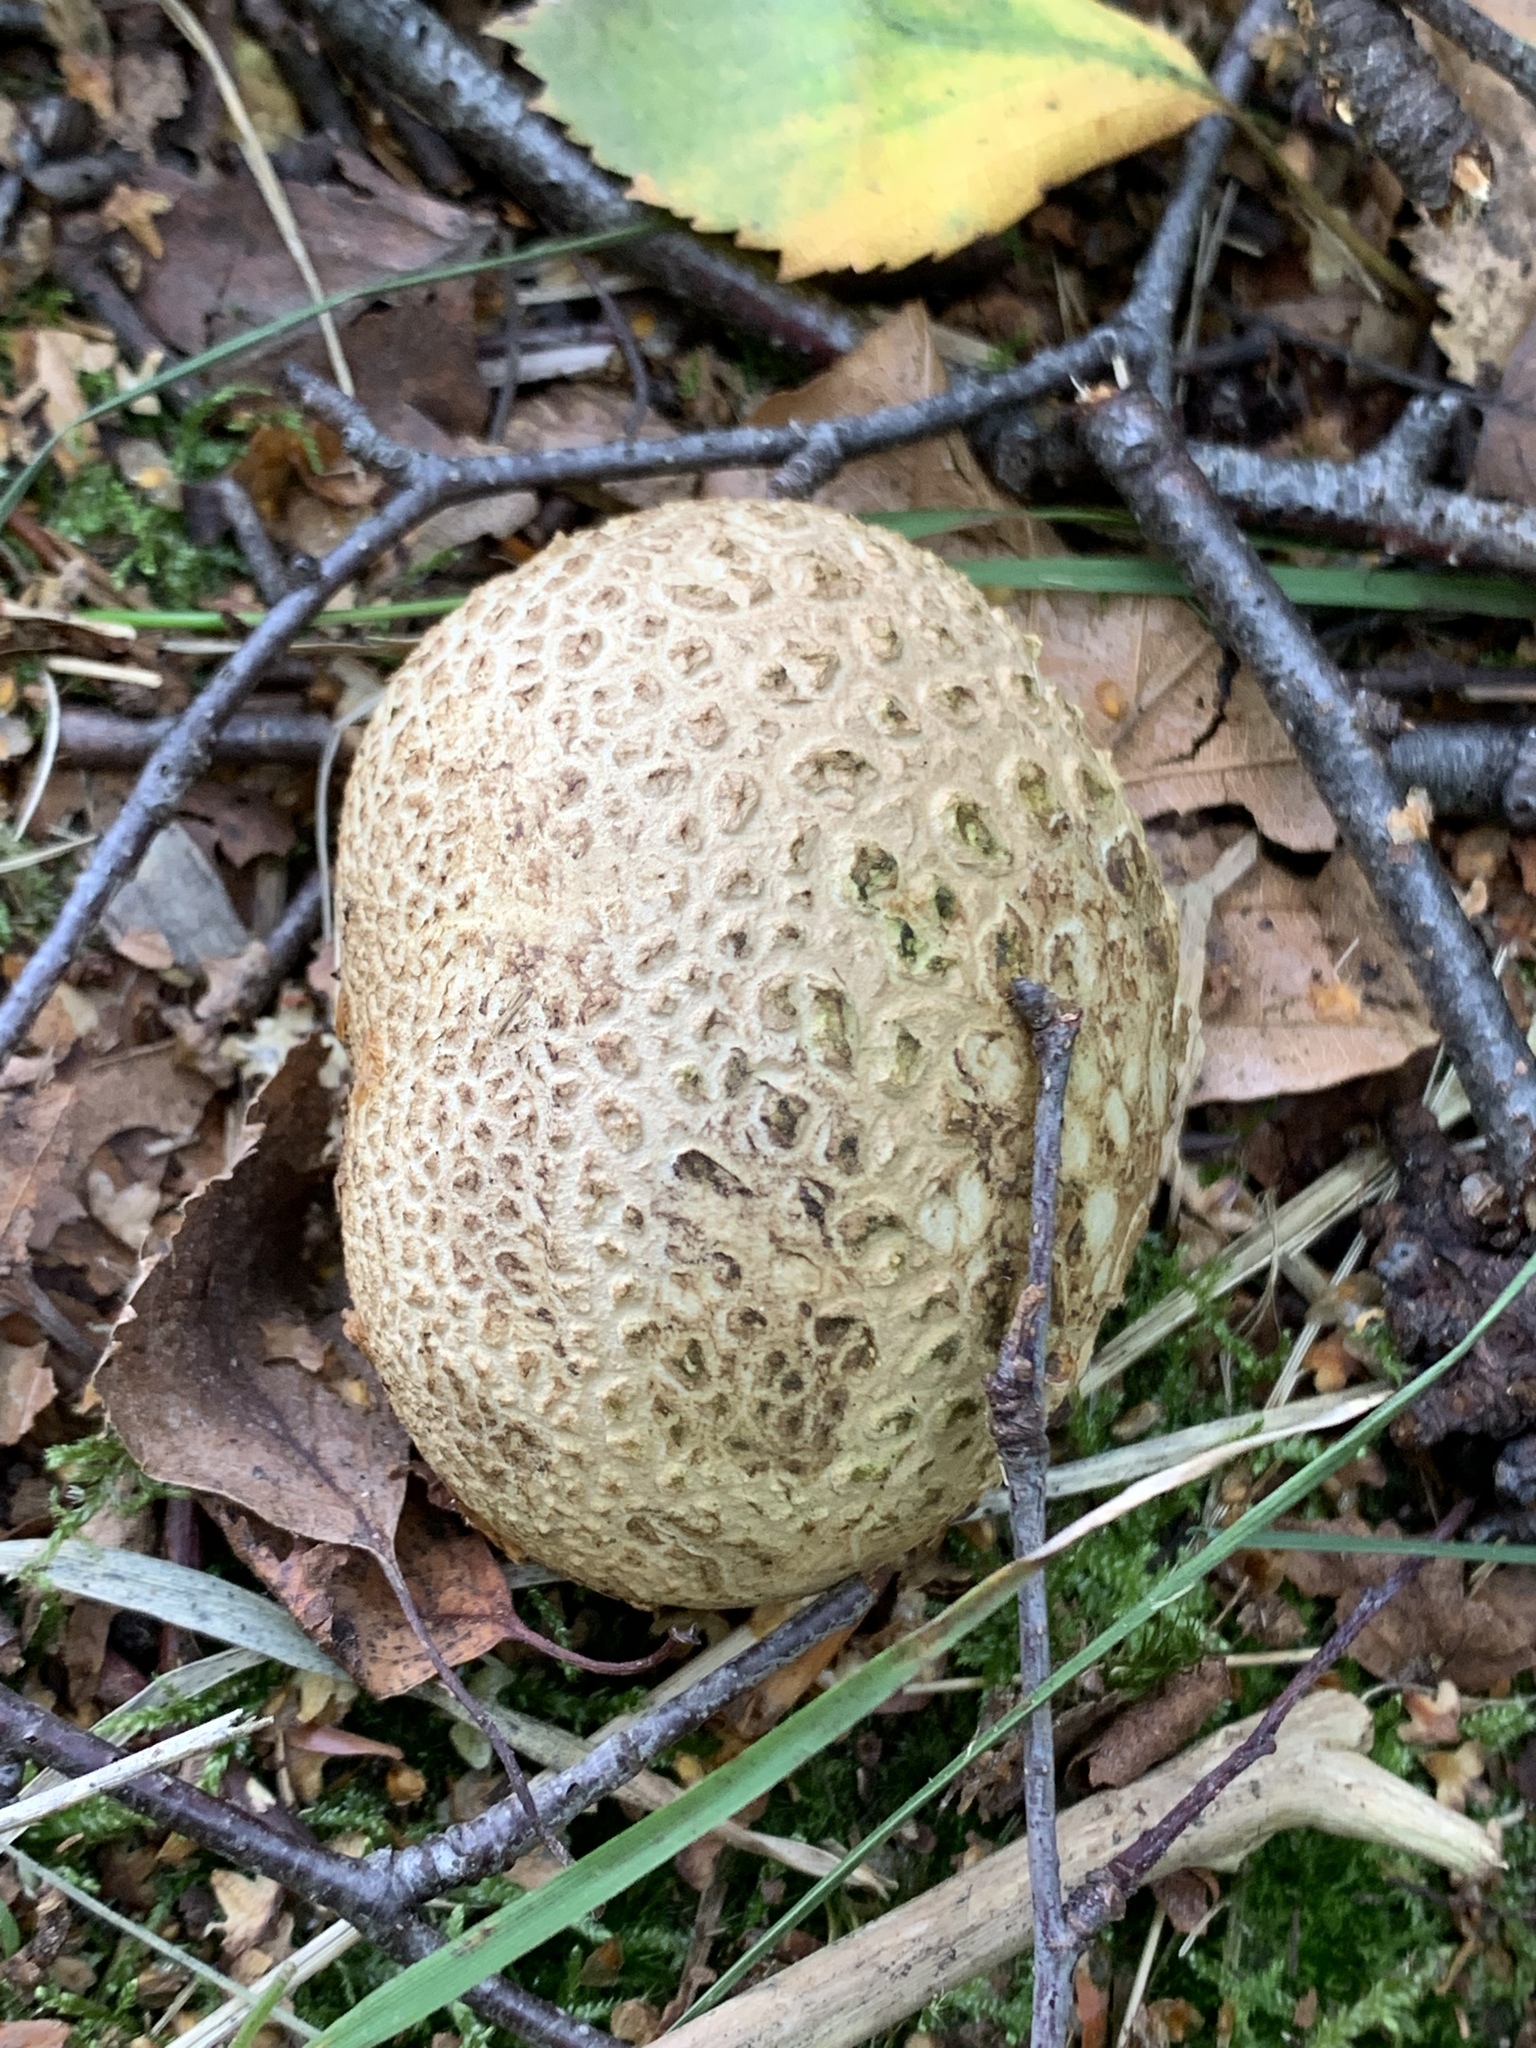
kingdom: Fungi
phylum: Basidiomycota
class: Agaricomycetes
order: Boletales
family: Sclerodermataceae
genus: Scleroderma
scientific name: Scleroderma citrinum
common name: Common earthball
